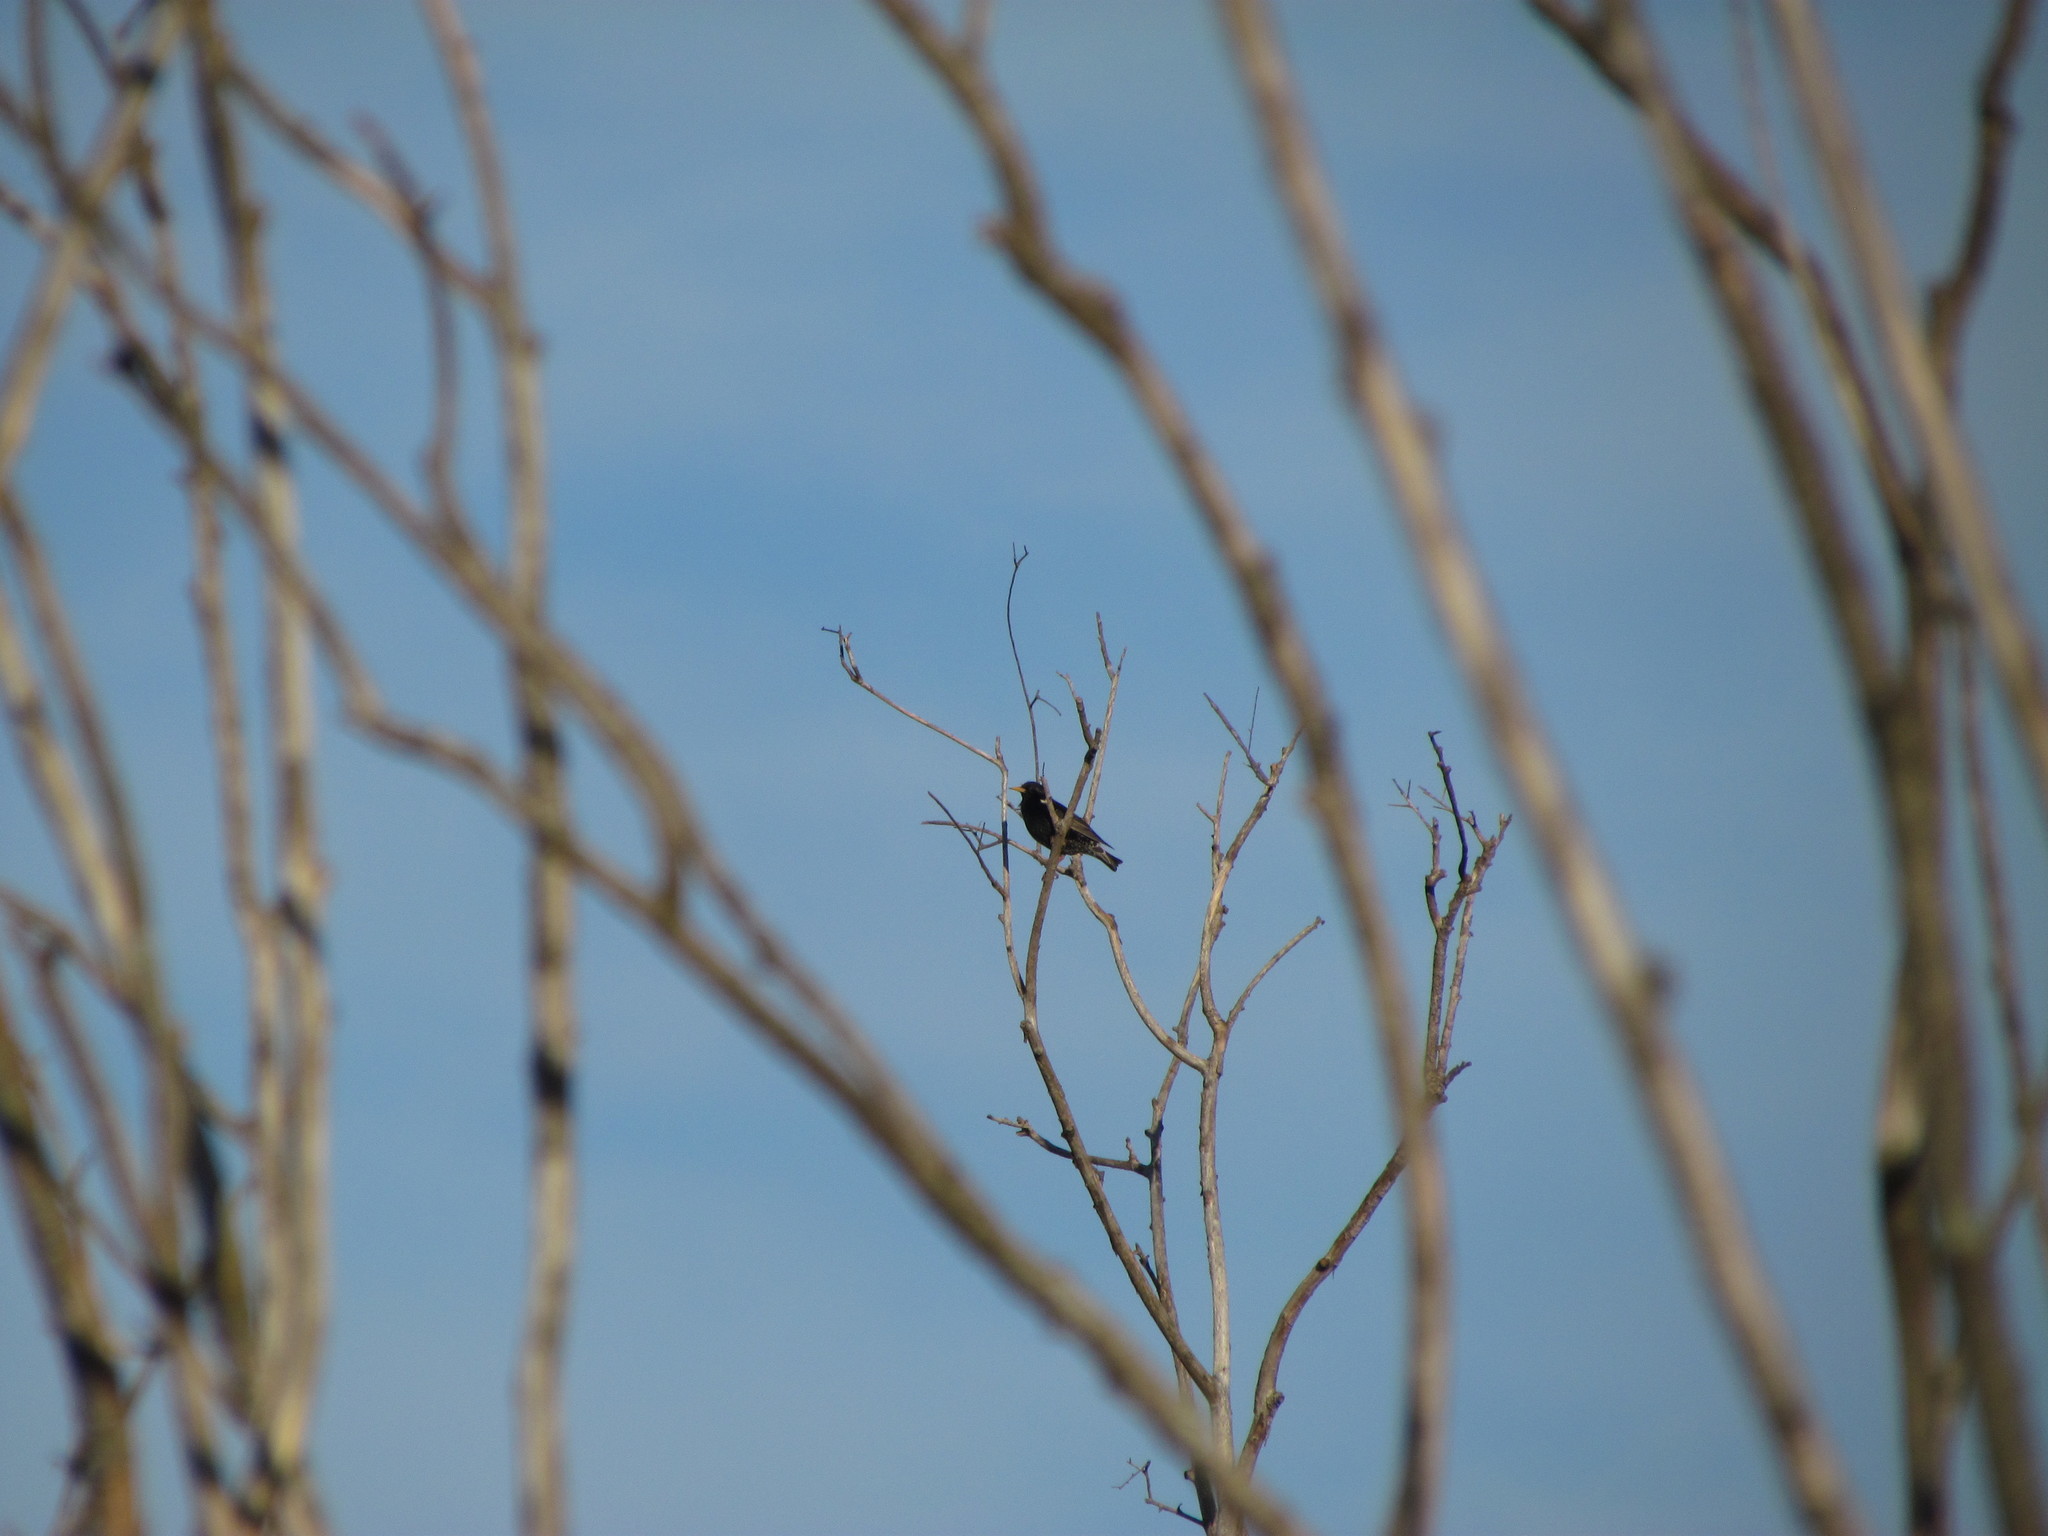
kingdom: Animalia
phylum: Chordata
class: Aves
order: Passeriformes
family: Sturnidae
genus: Sturnus
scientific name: Sturnus vulgaris
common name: Common starling
